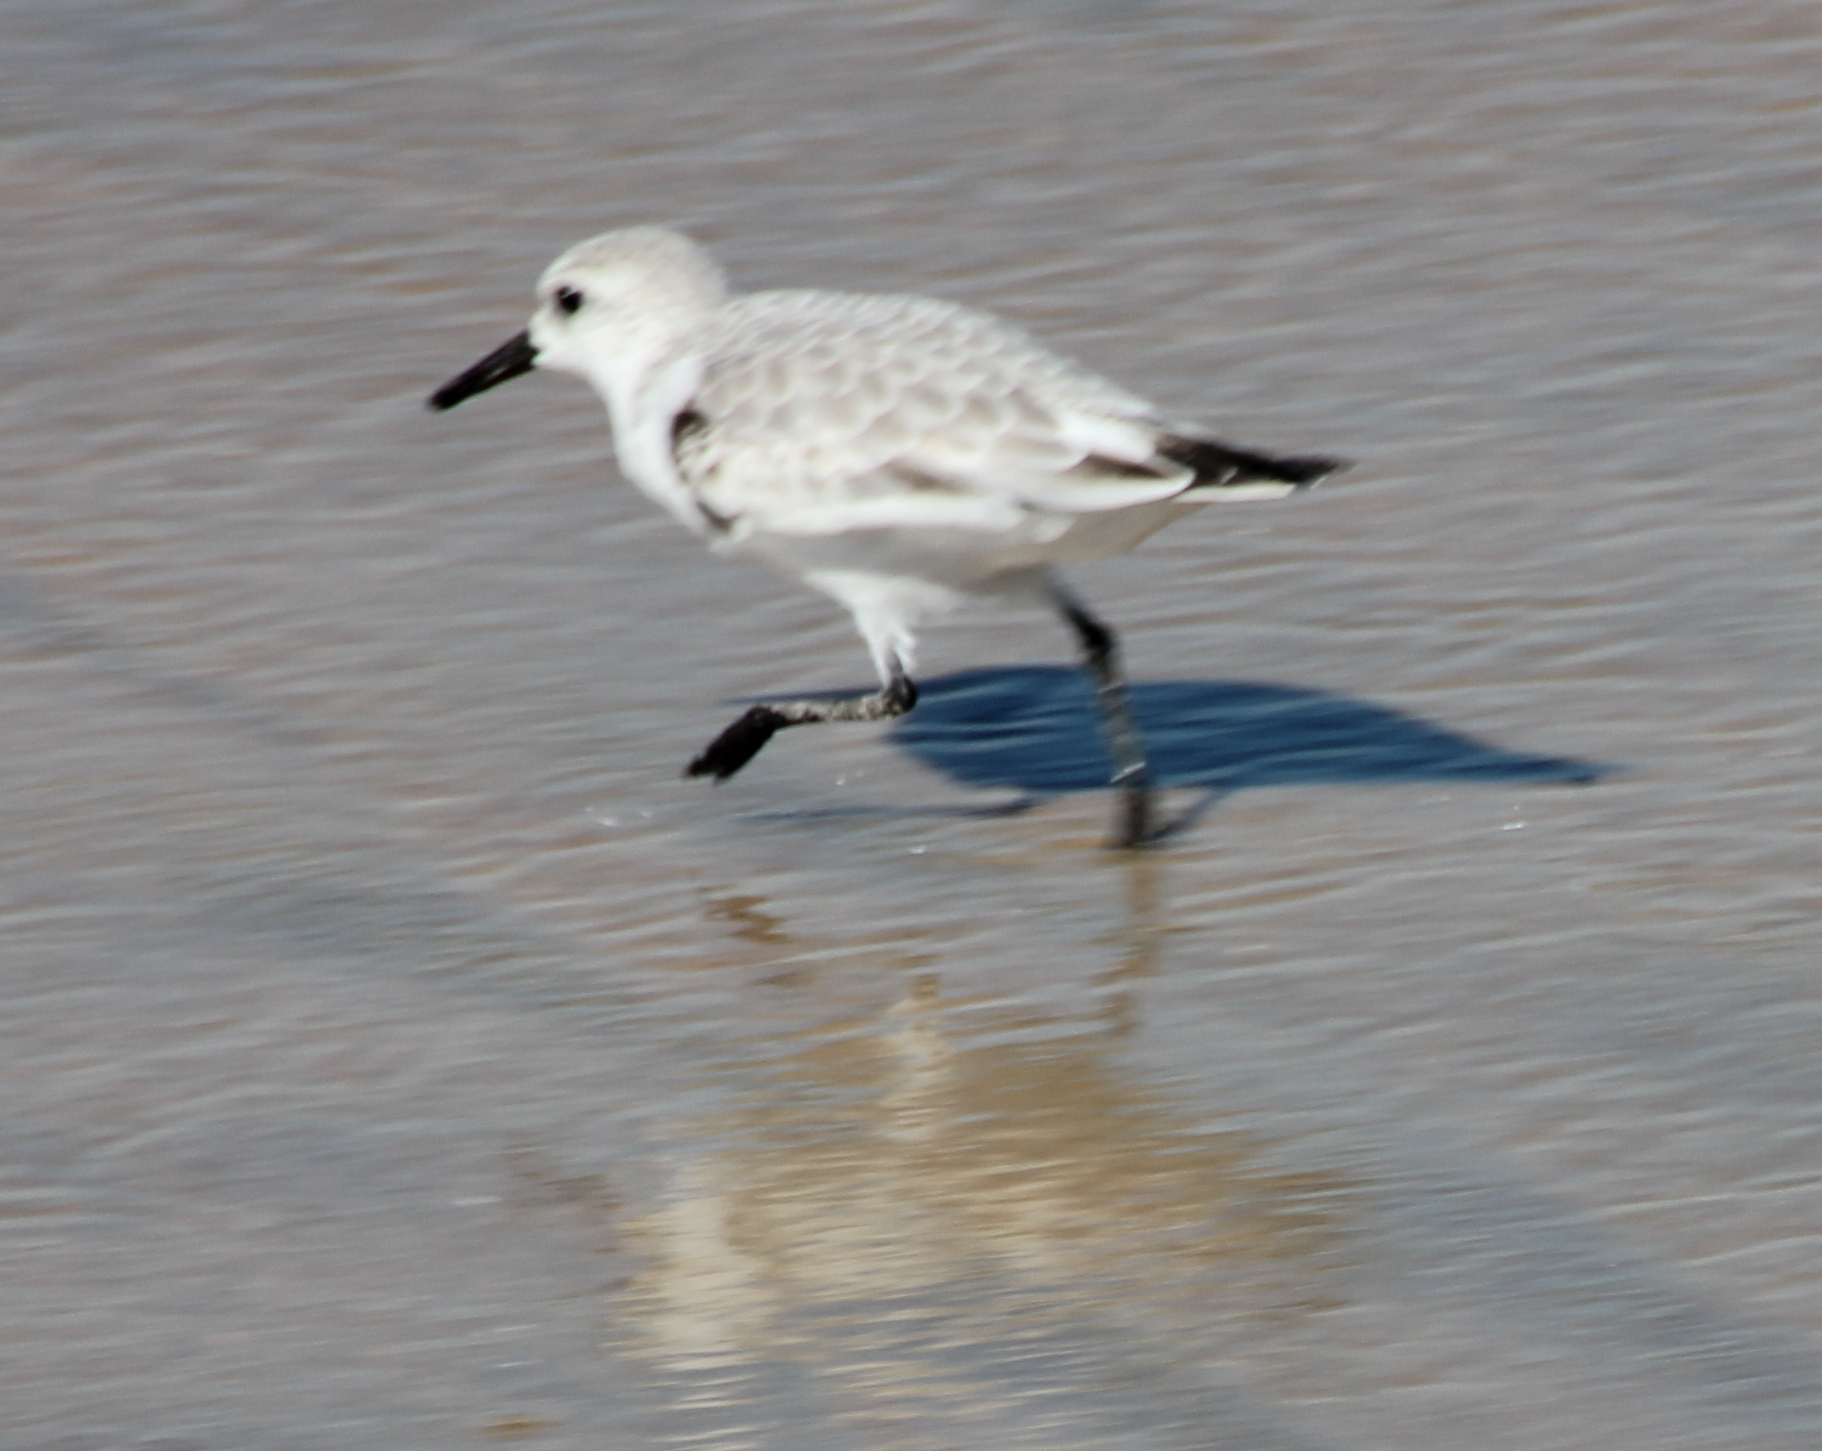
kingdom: Animalia
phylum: Chordata
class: Aves
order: Charadriiformes
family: Scolopacidae
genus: Calidris
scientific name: Calidris alba
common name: Sanderling
